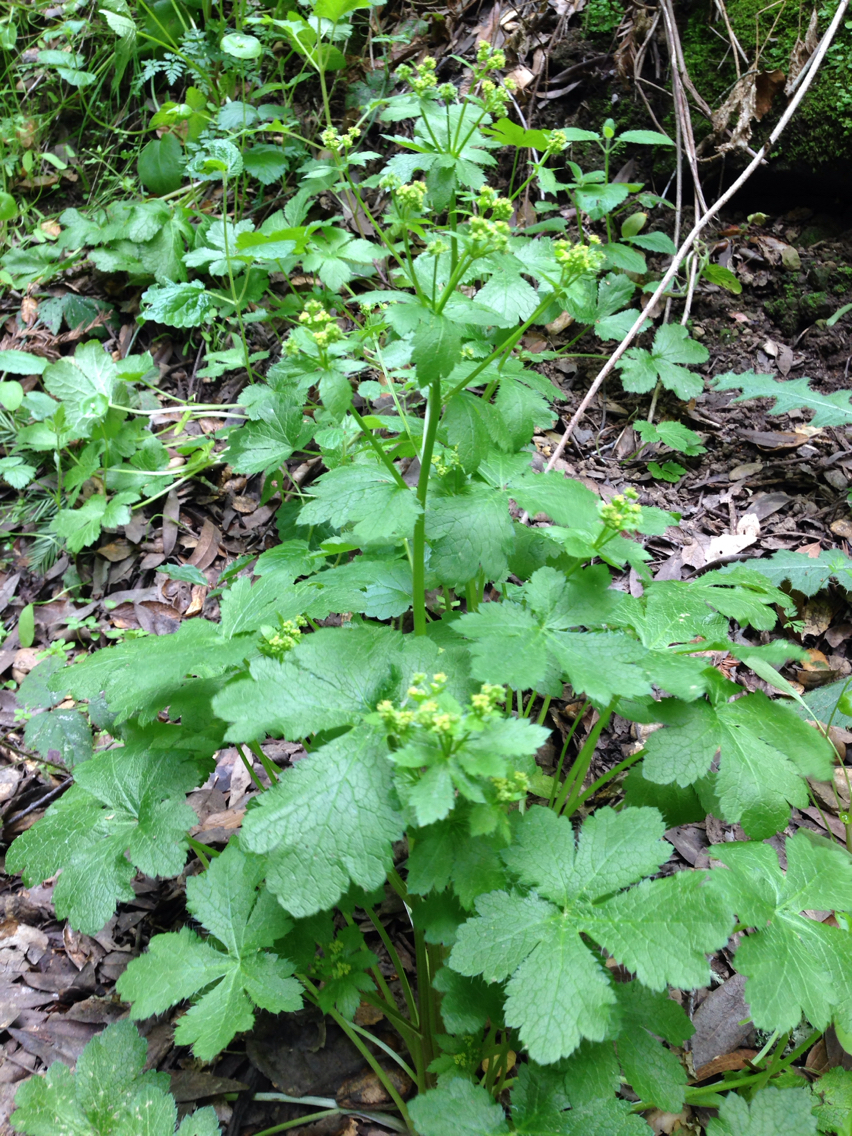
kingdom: Plantae
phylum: Tracheophyta
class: Magnoliopsida
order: Apiales
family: Apiaceae
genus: Sanicula
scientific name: Sanicula crassicaulis
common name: Western snakeroot
